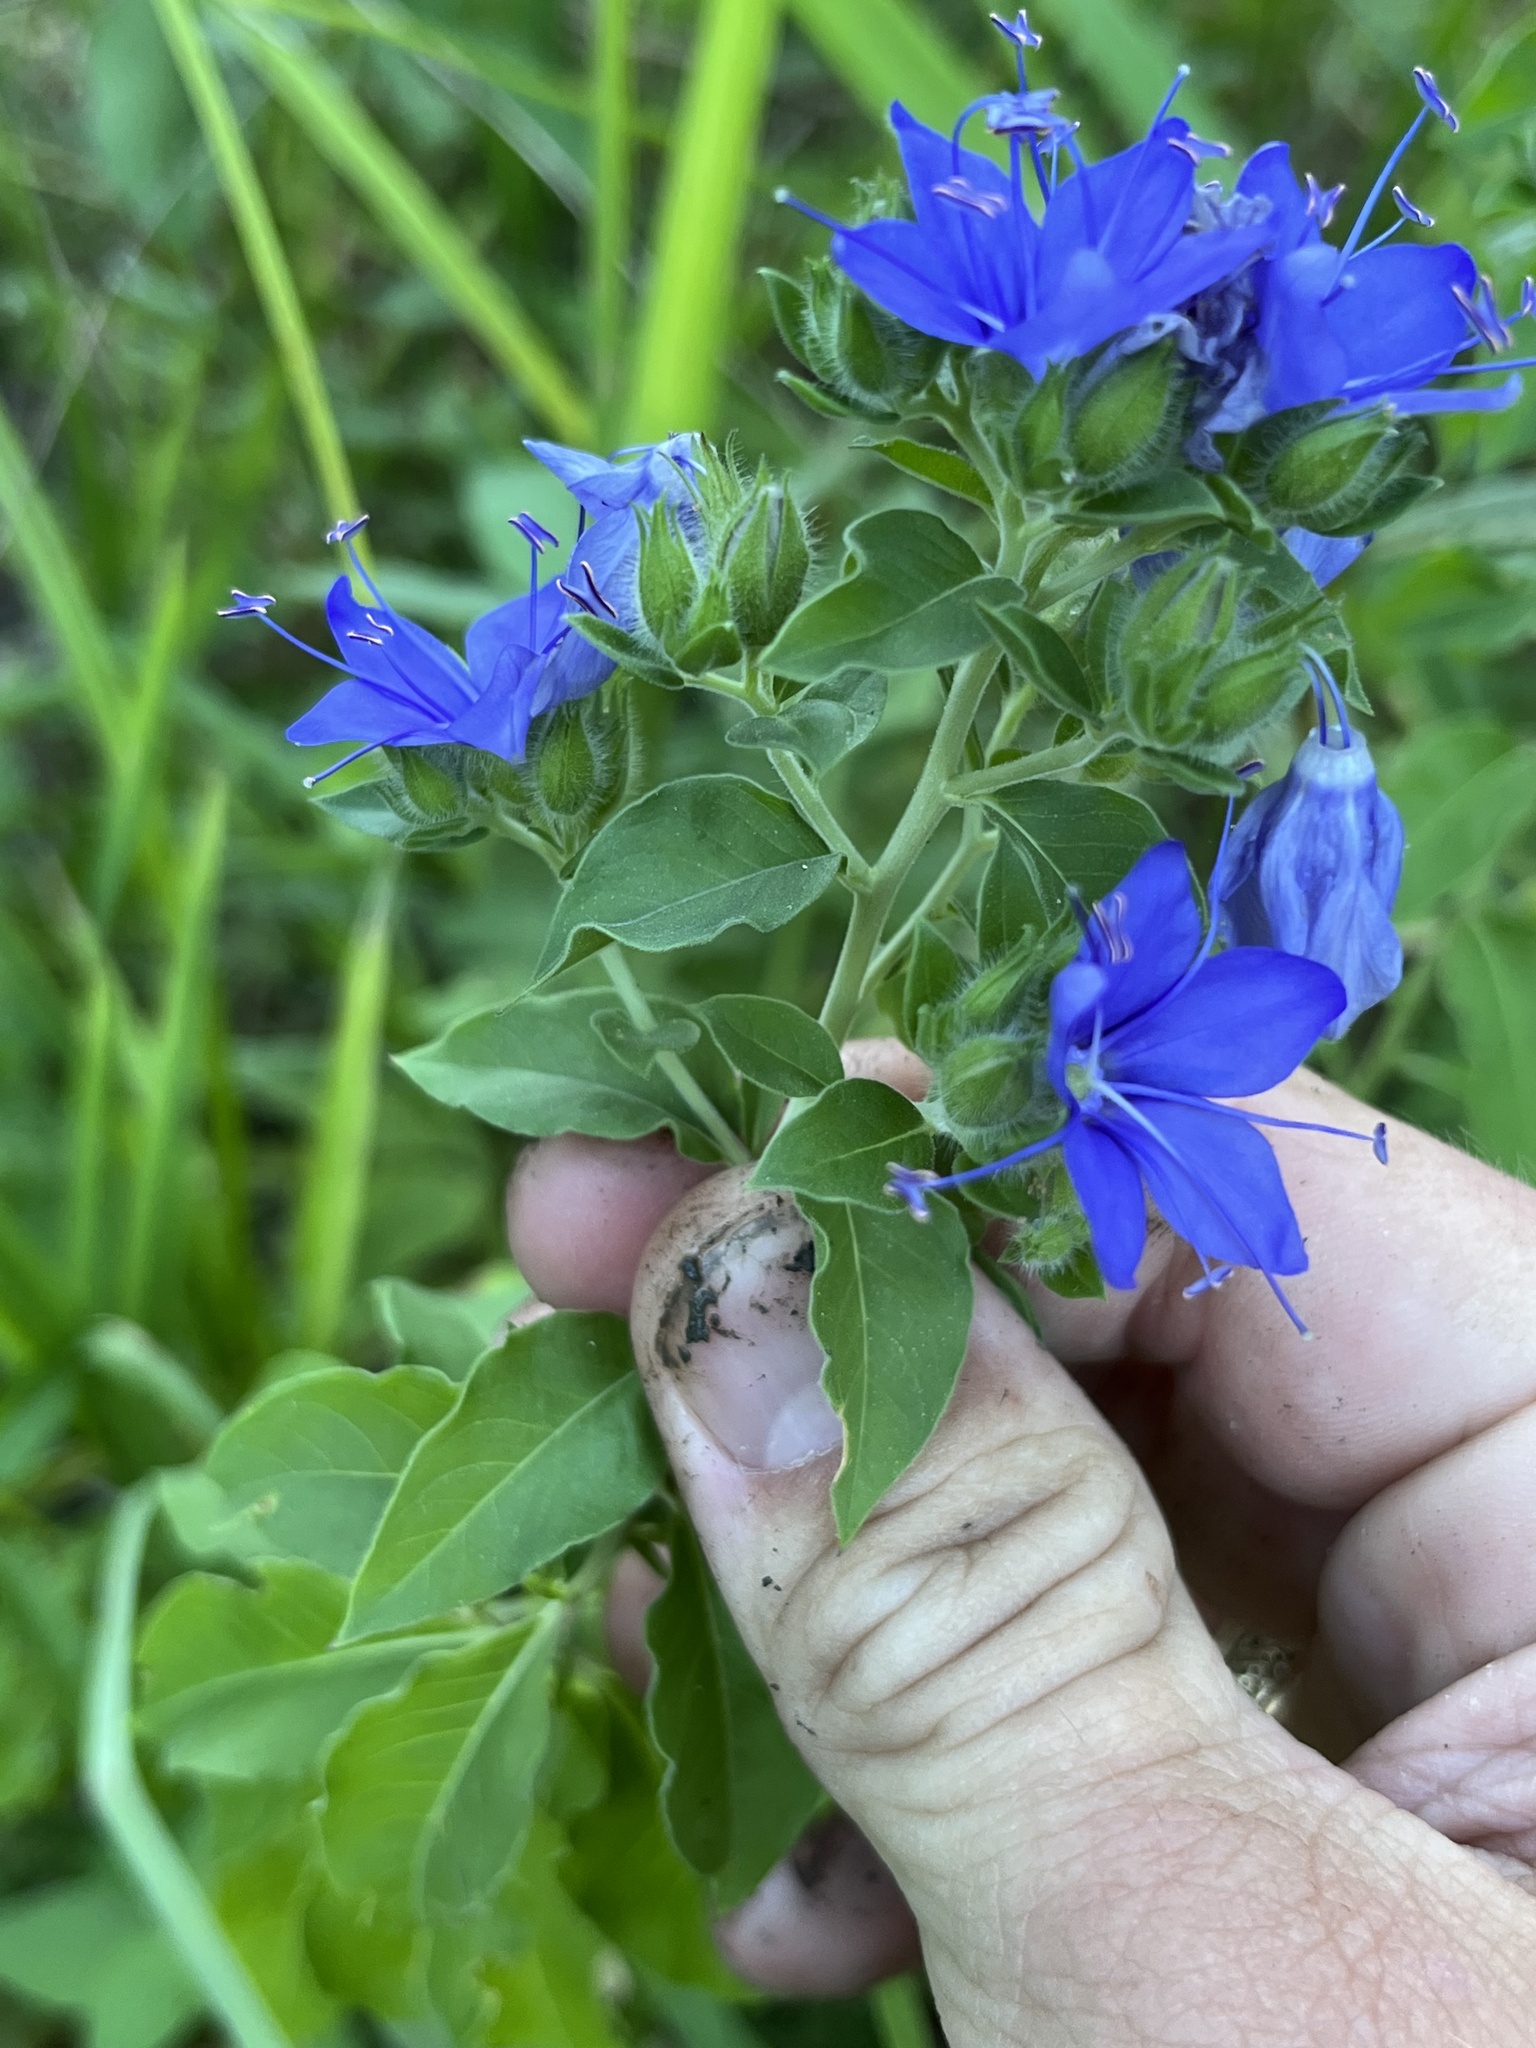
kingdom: Plantae
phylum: Tracheophyta
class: Magnoliopsida
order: Solanales
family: Hydroleaceae
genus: Hydrolea
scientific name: Hydrolea ovata
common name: Ovate false fiddleleaf
